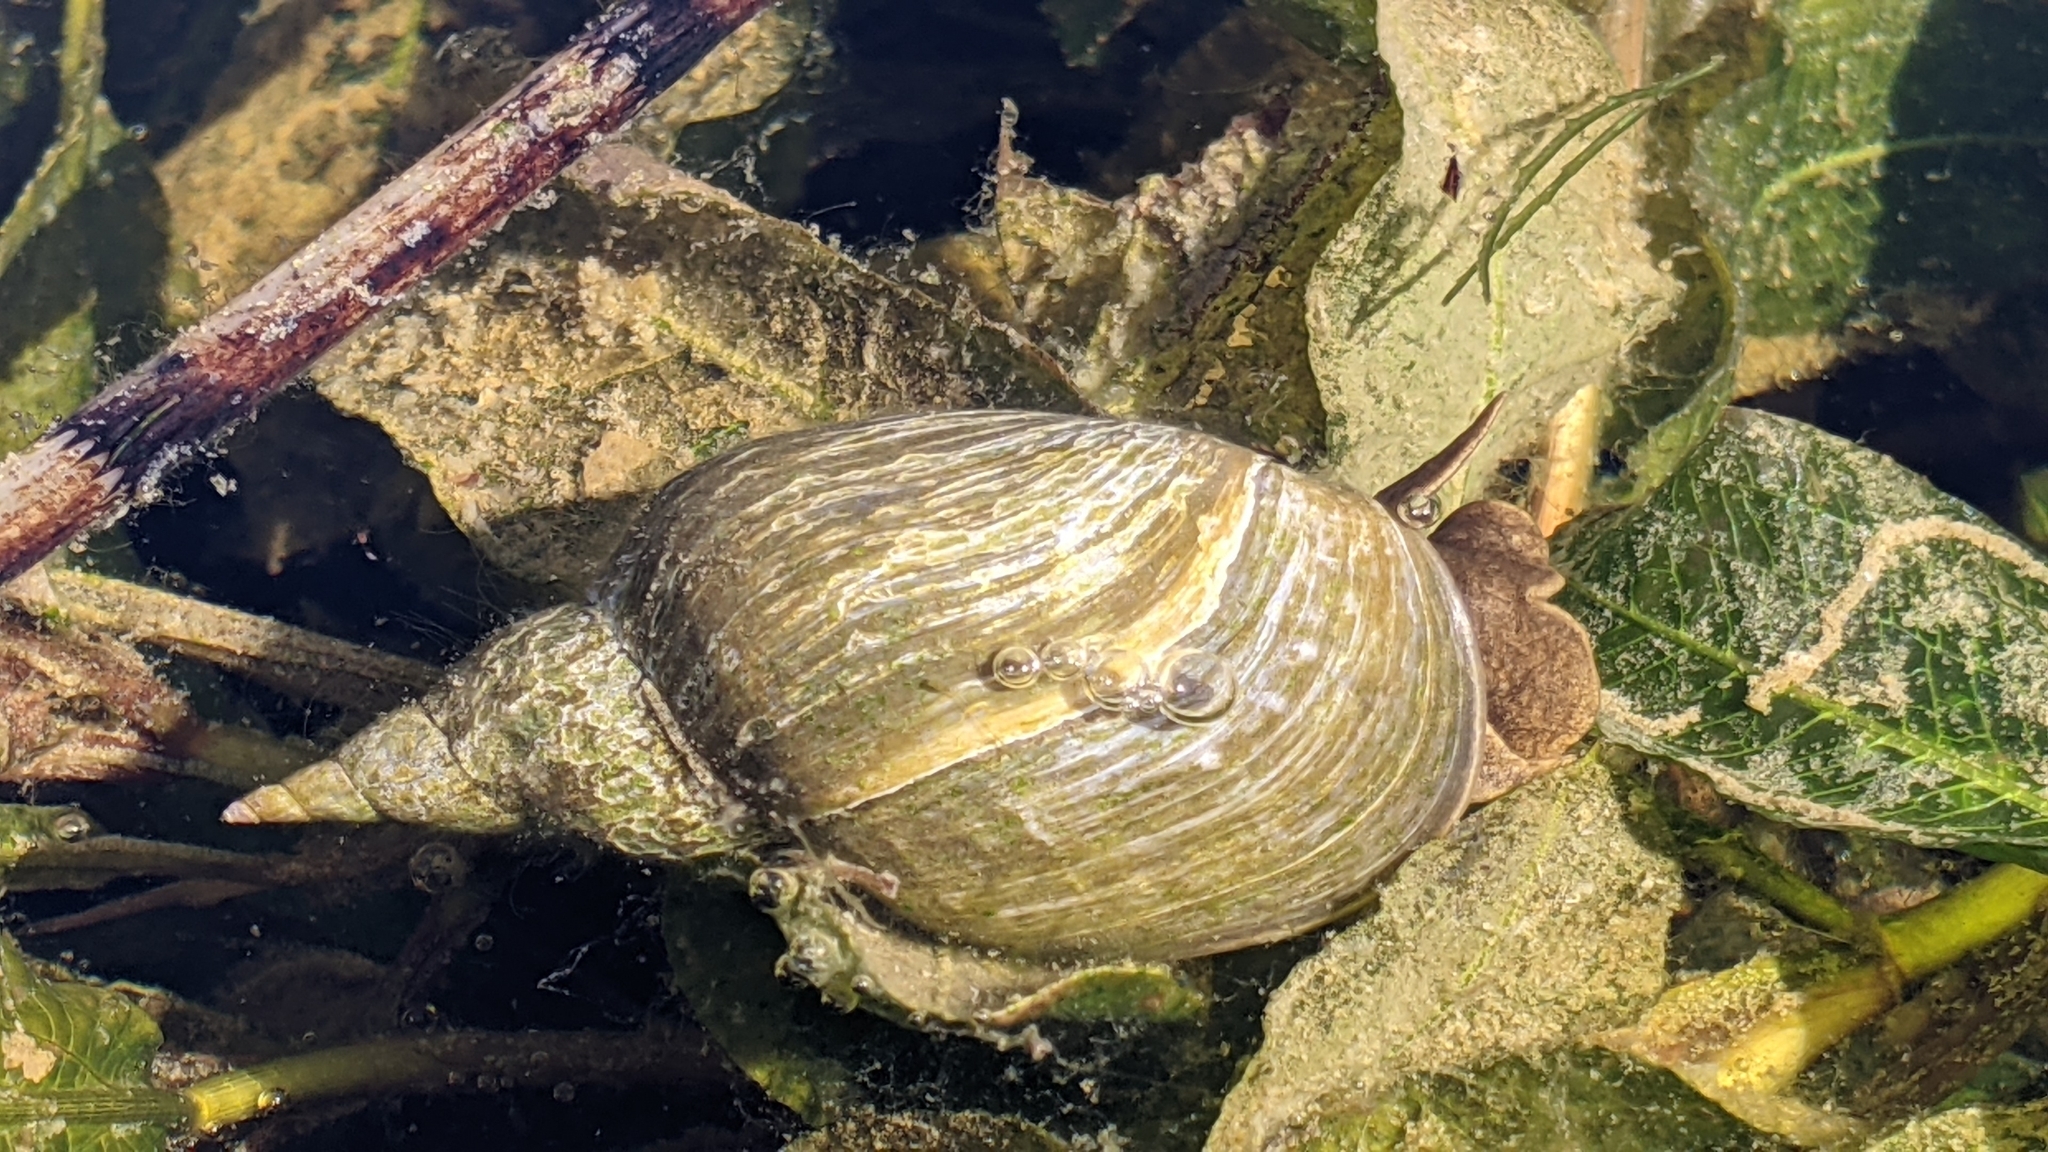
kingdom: Animalia
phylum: Mollusca
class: Gastropoda
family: Lymnaeidae
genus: Lymnaea
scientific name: Lymnaea stagnalis
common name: Great pond snail
